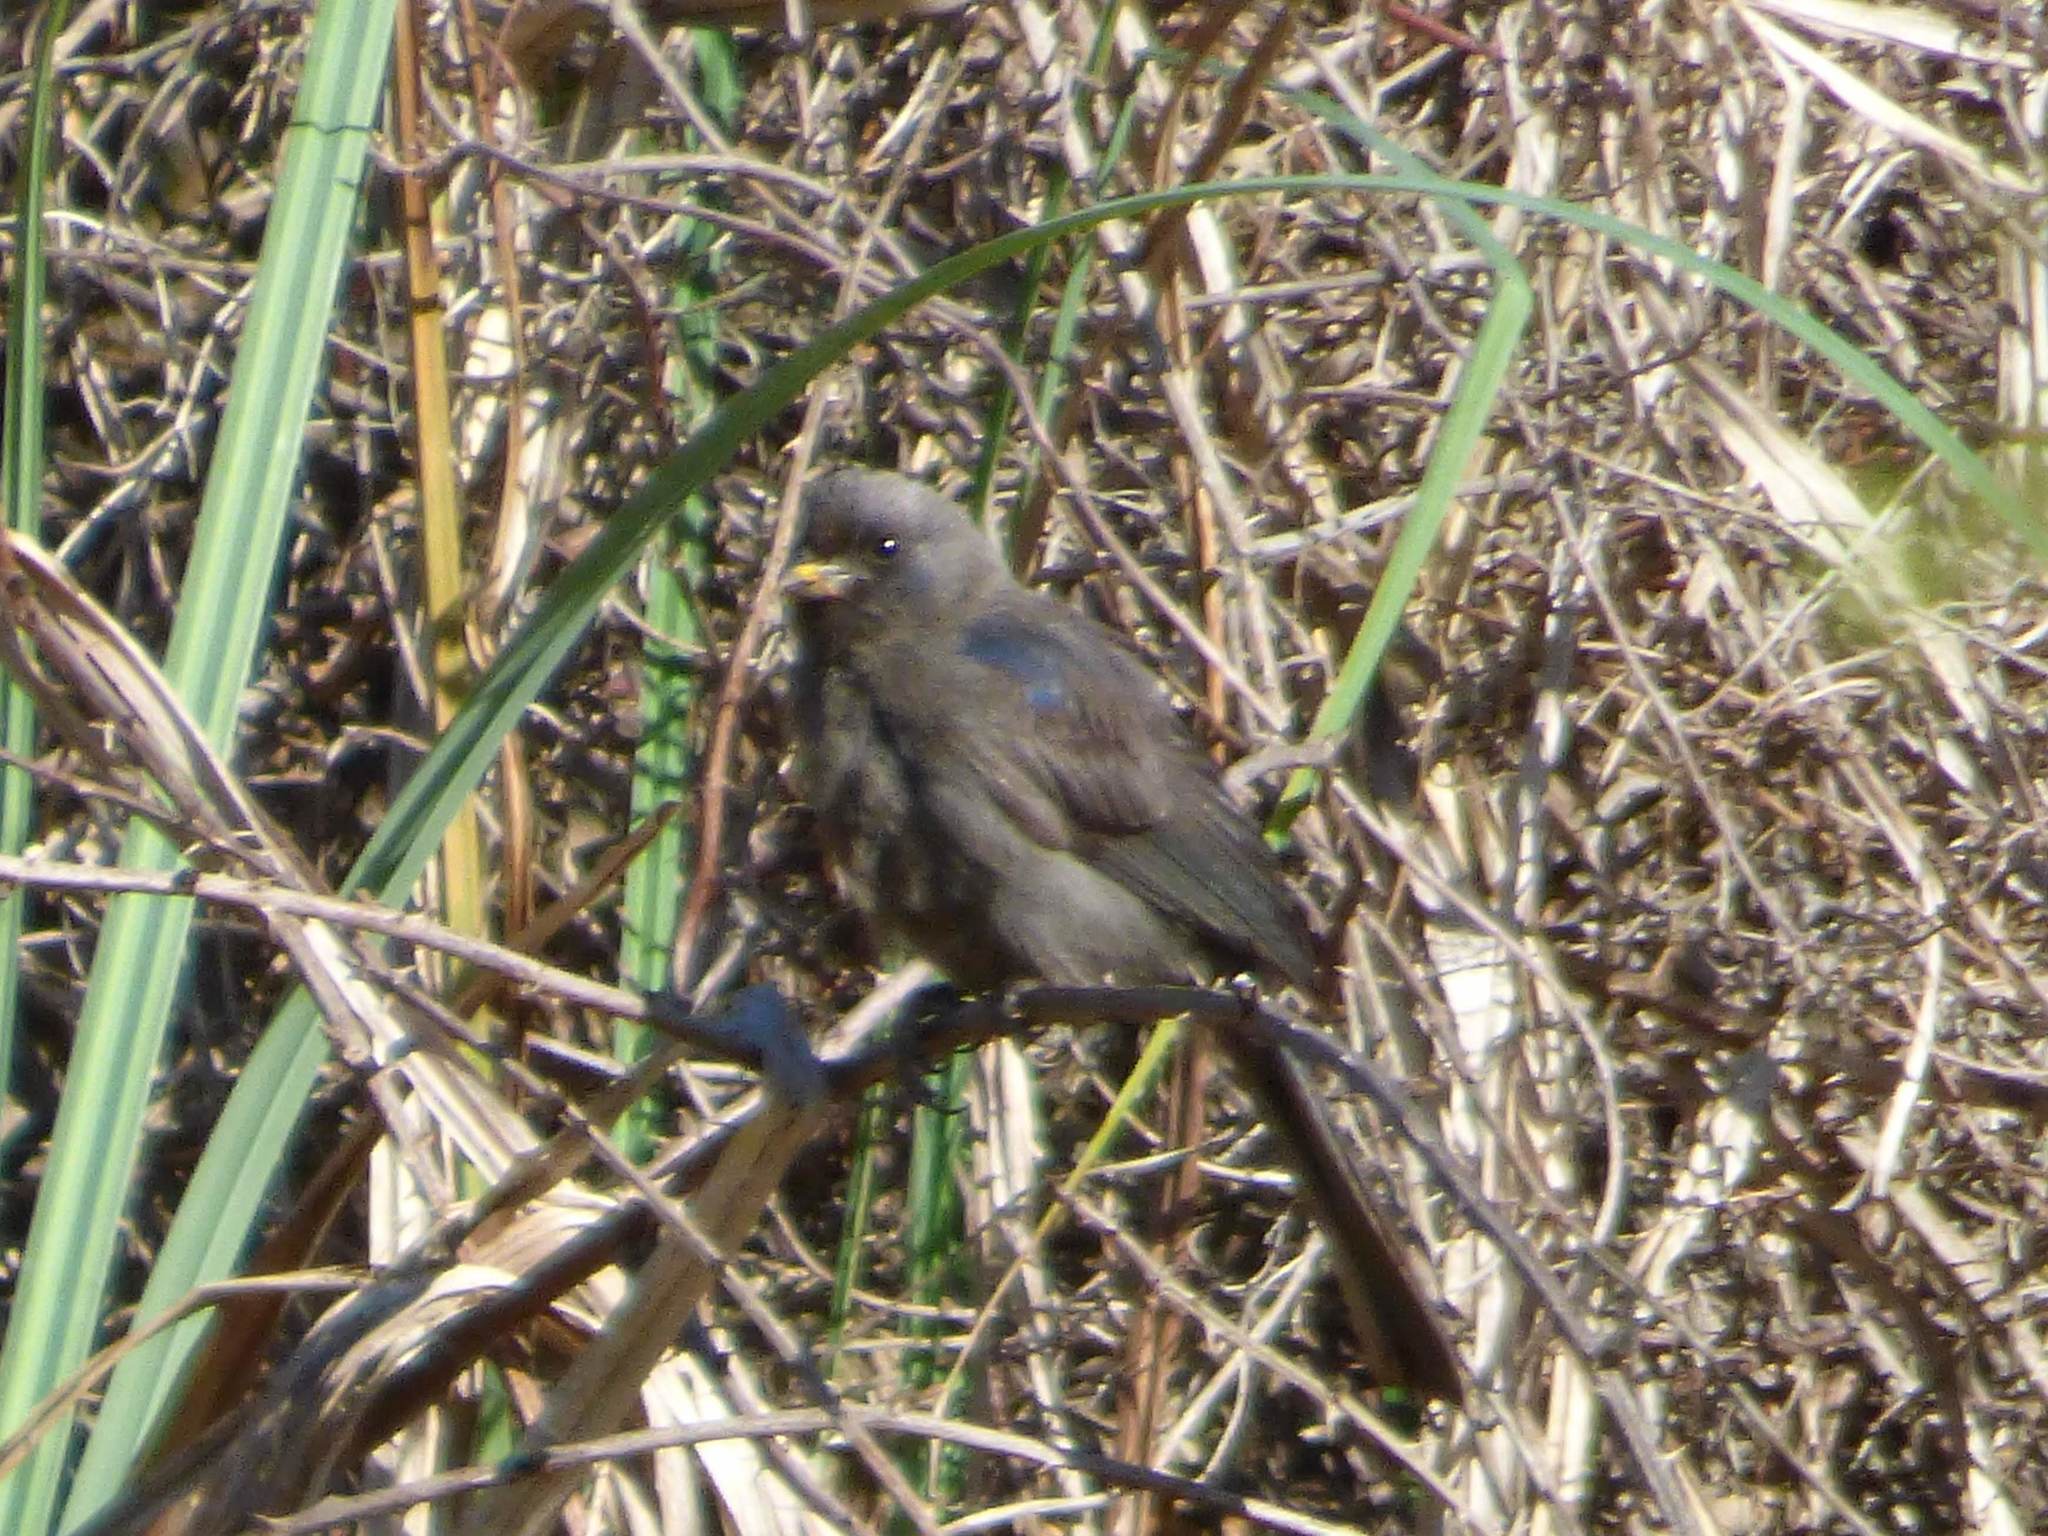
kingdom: Animalia
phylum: Chordata
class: Aves
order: Passeriformes
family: Thraupidae
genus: Stephanophorus
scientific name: Stephanophorus diadematus
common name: Diademed tanager
